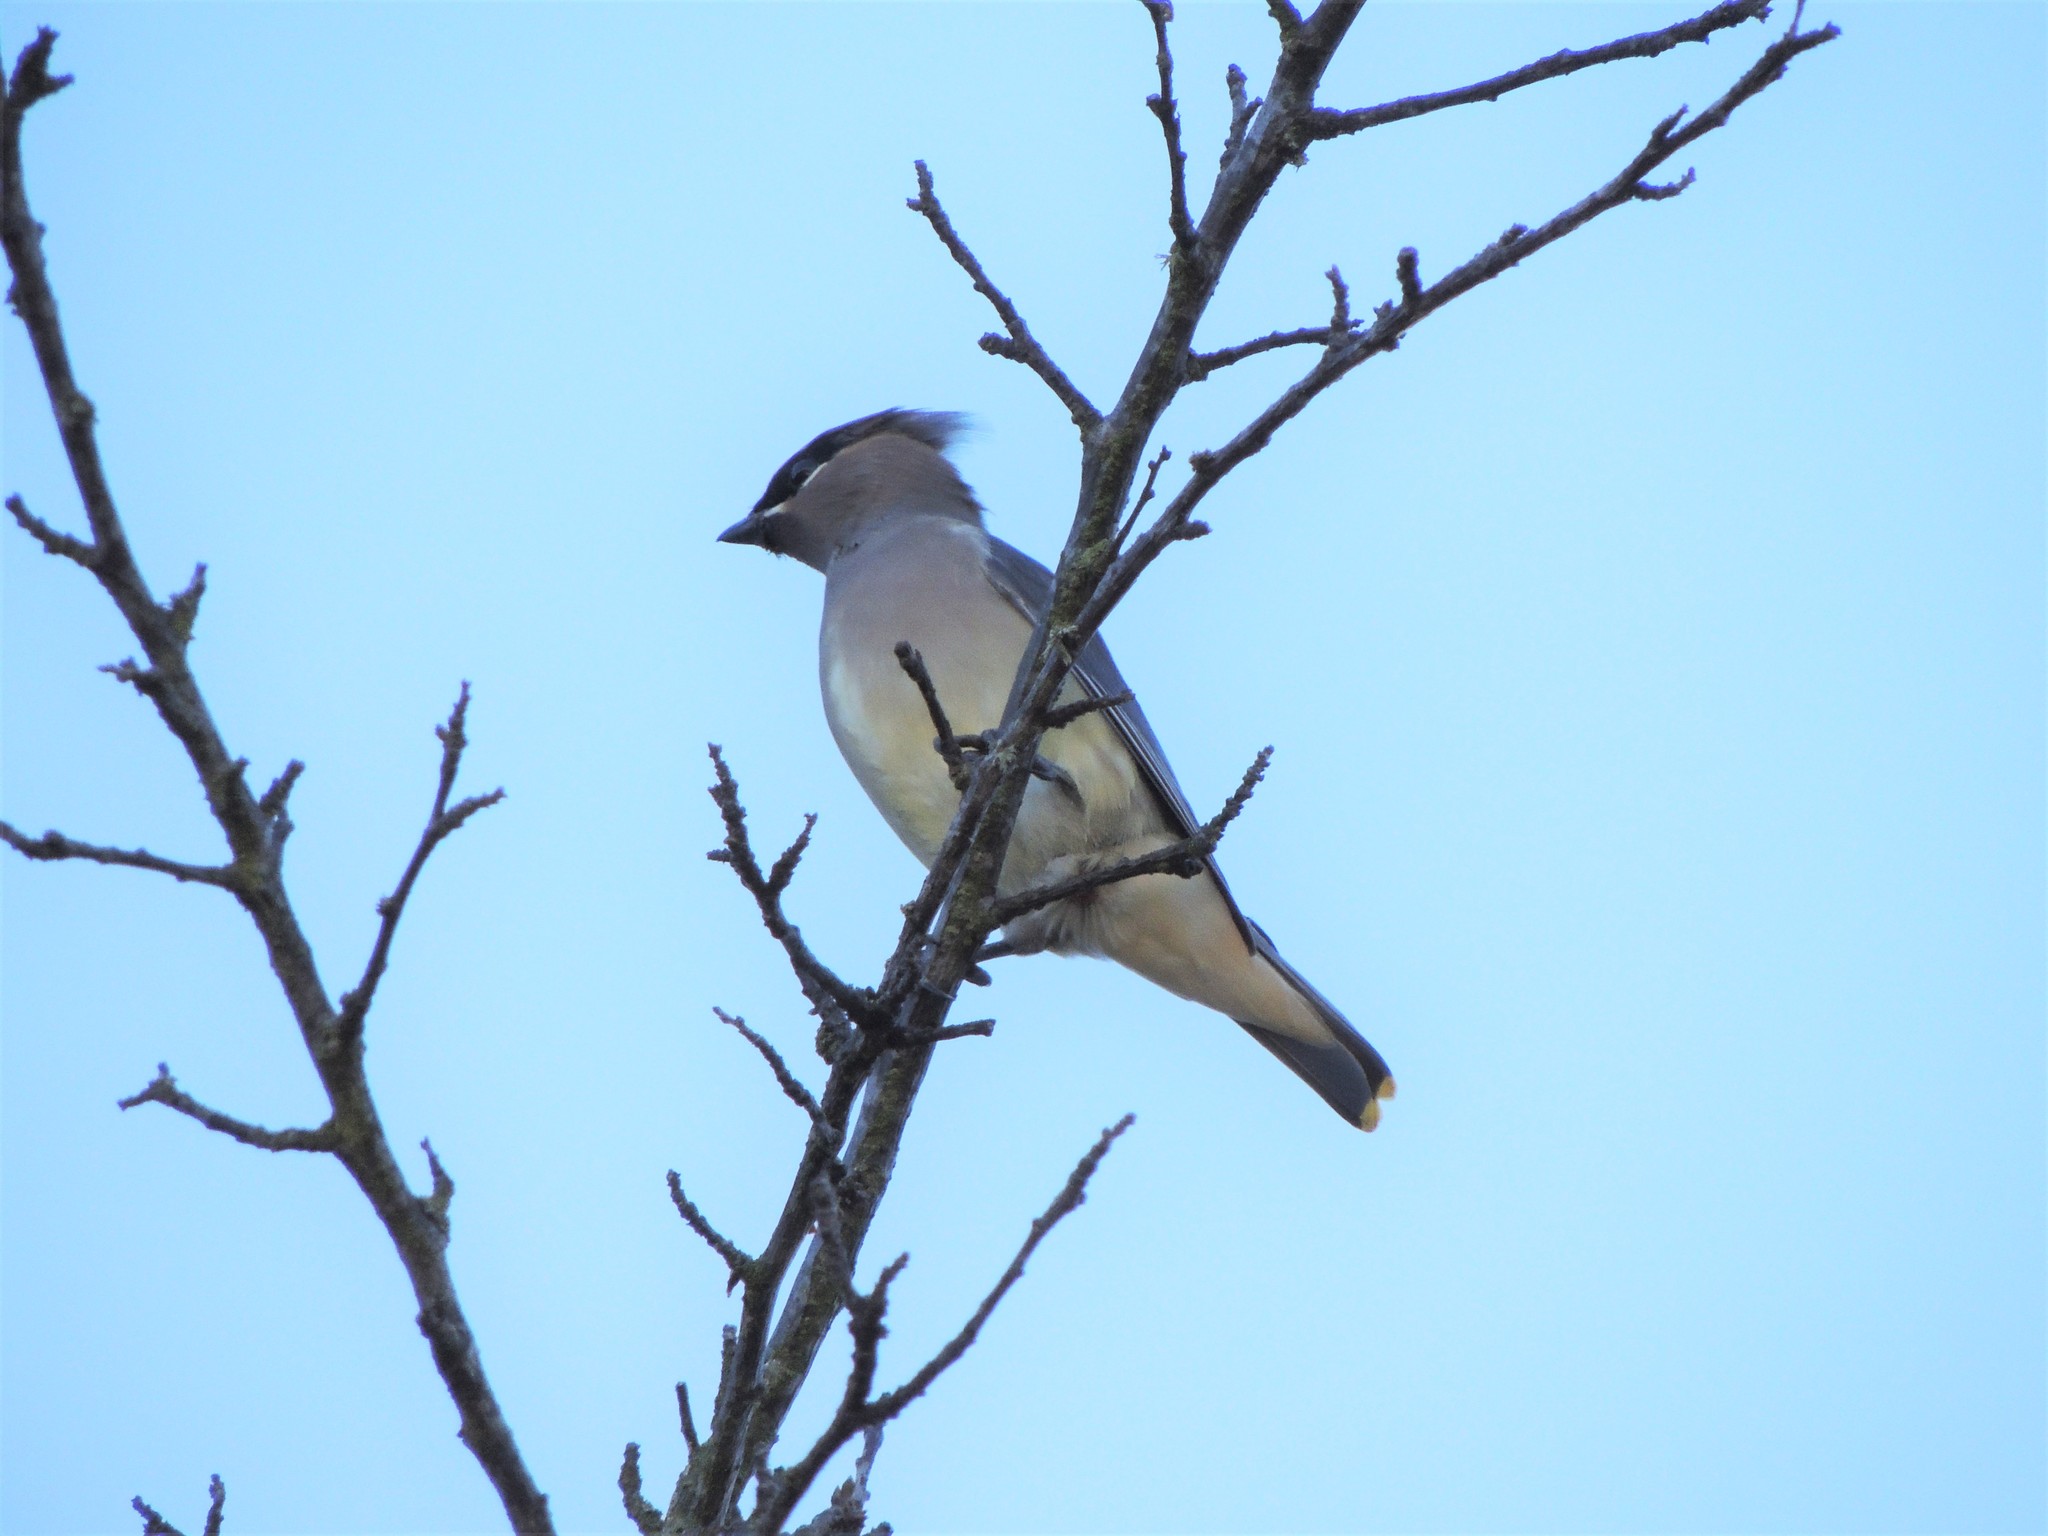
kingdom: Animalia
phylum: Chordata
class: Aves
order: Passeriformes
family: Bombycillidae
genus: Bombycilla
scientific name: Bombycilla cedrorum
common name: Cedar waxwing
